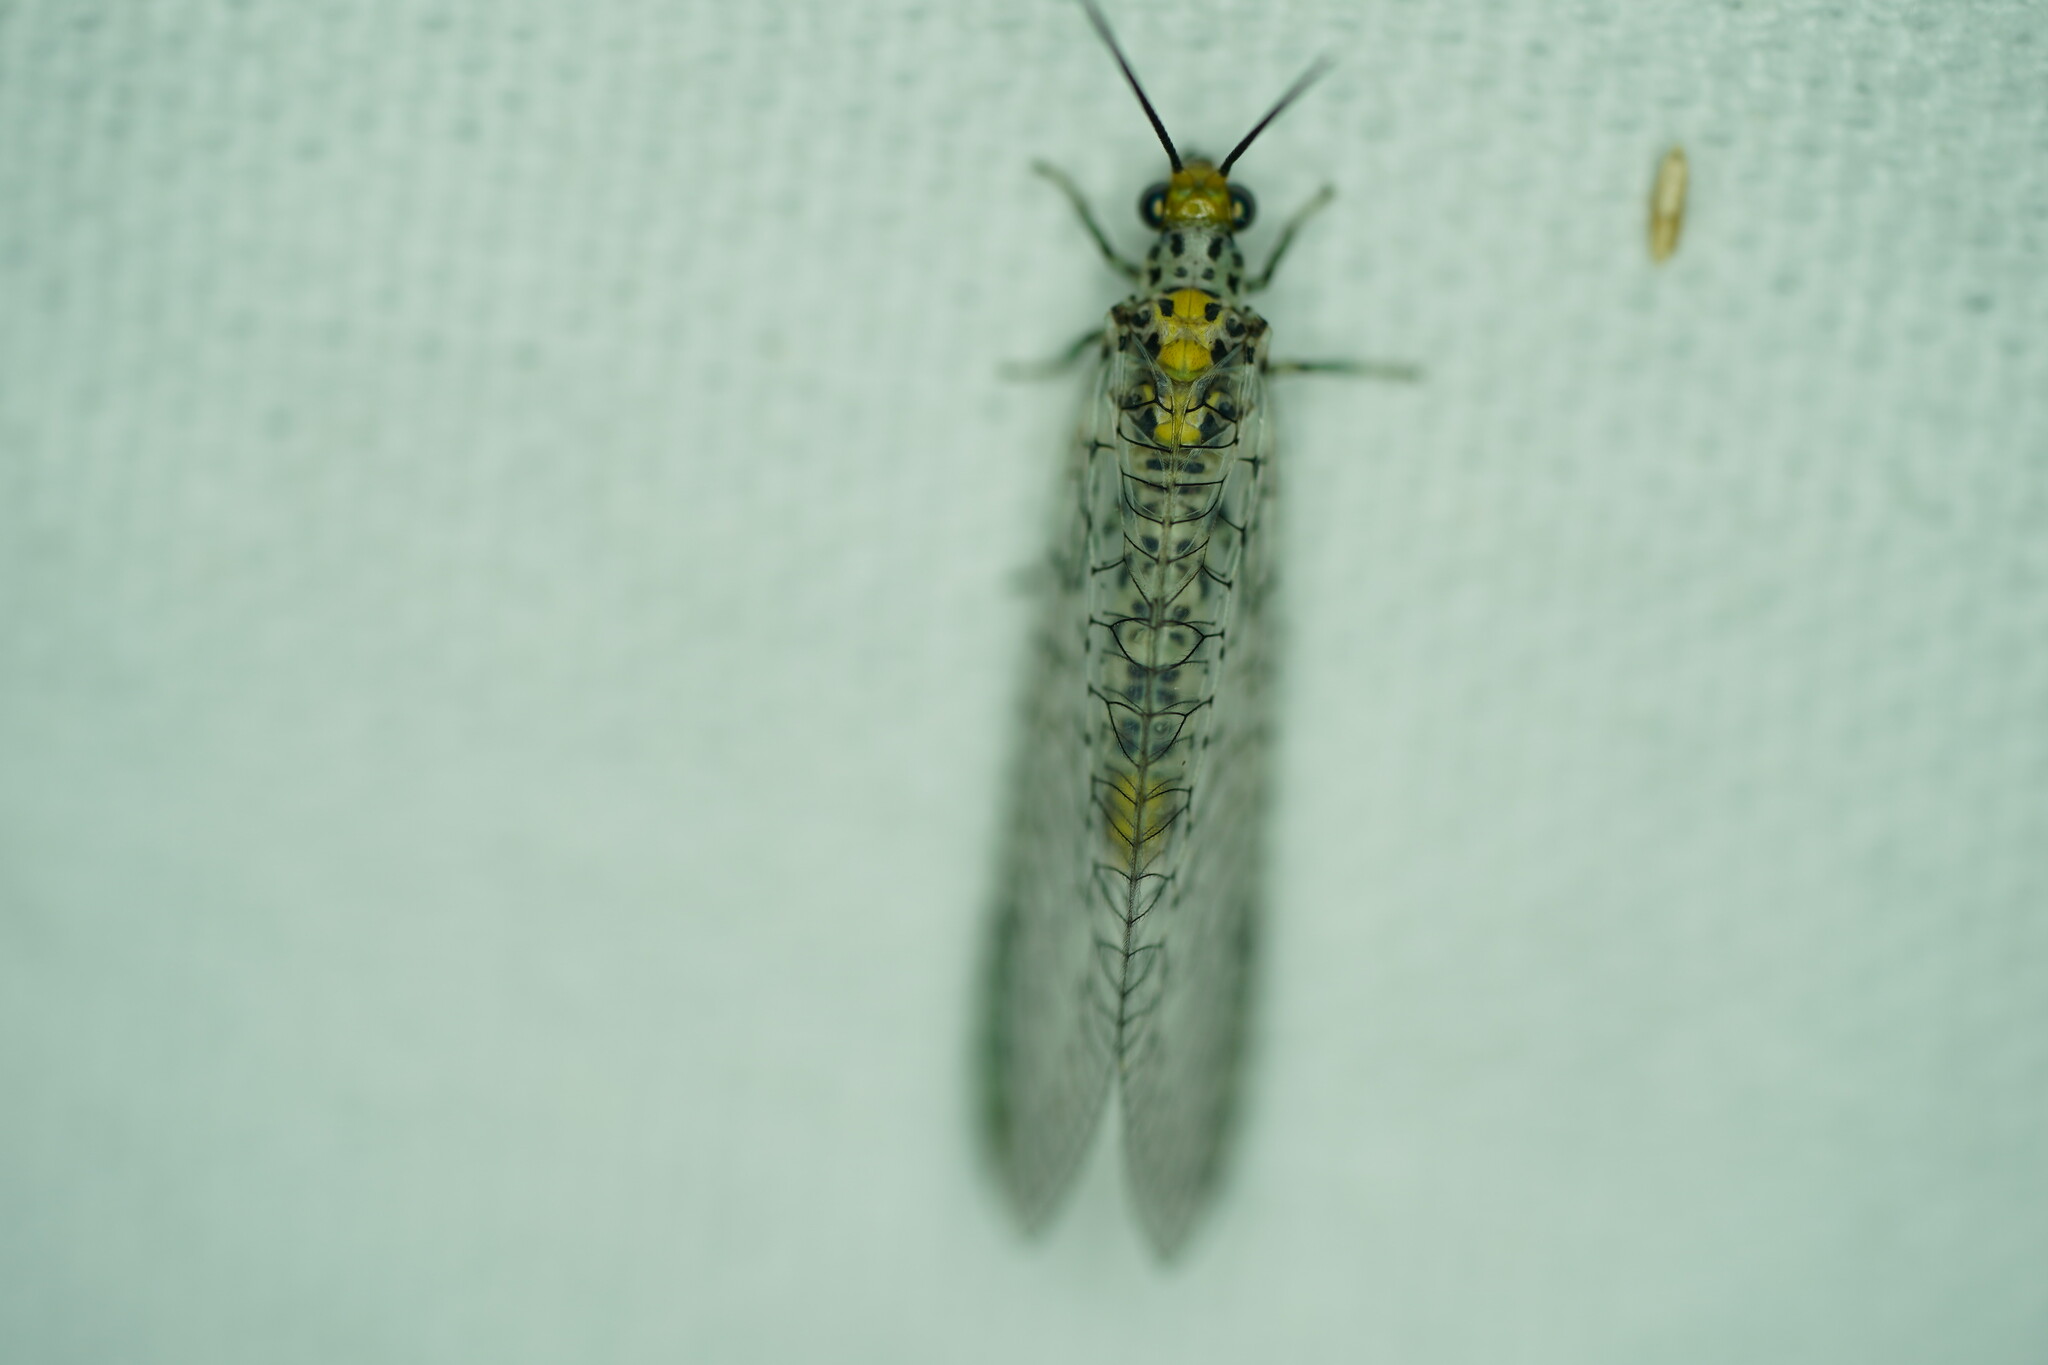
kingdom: Animalia
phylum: Arthropoda
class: Insecta
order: Neuroptera
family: Chrysopidae
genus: Abachrysa
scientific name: Abachrysa eureka
